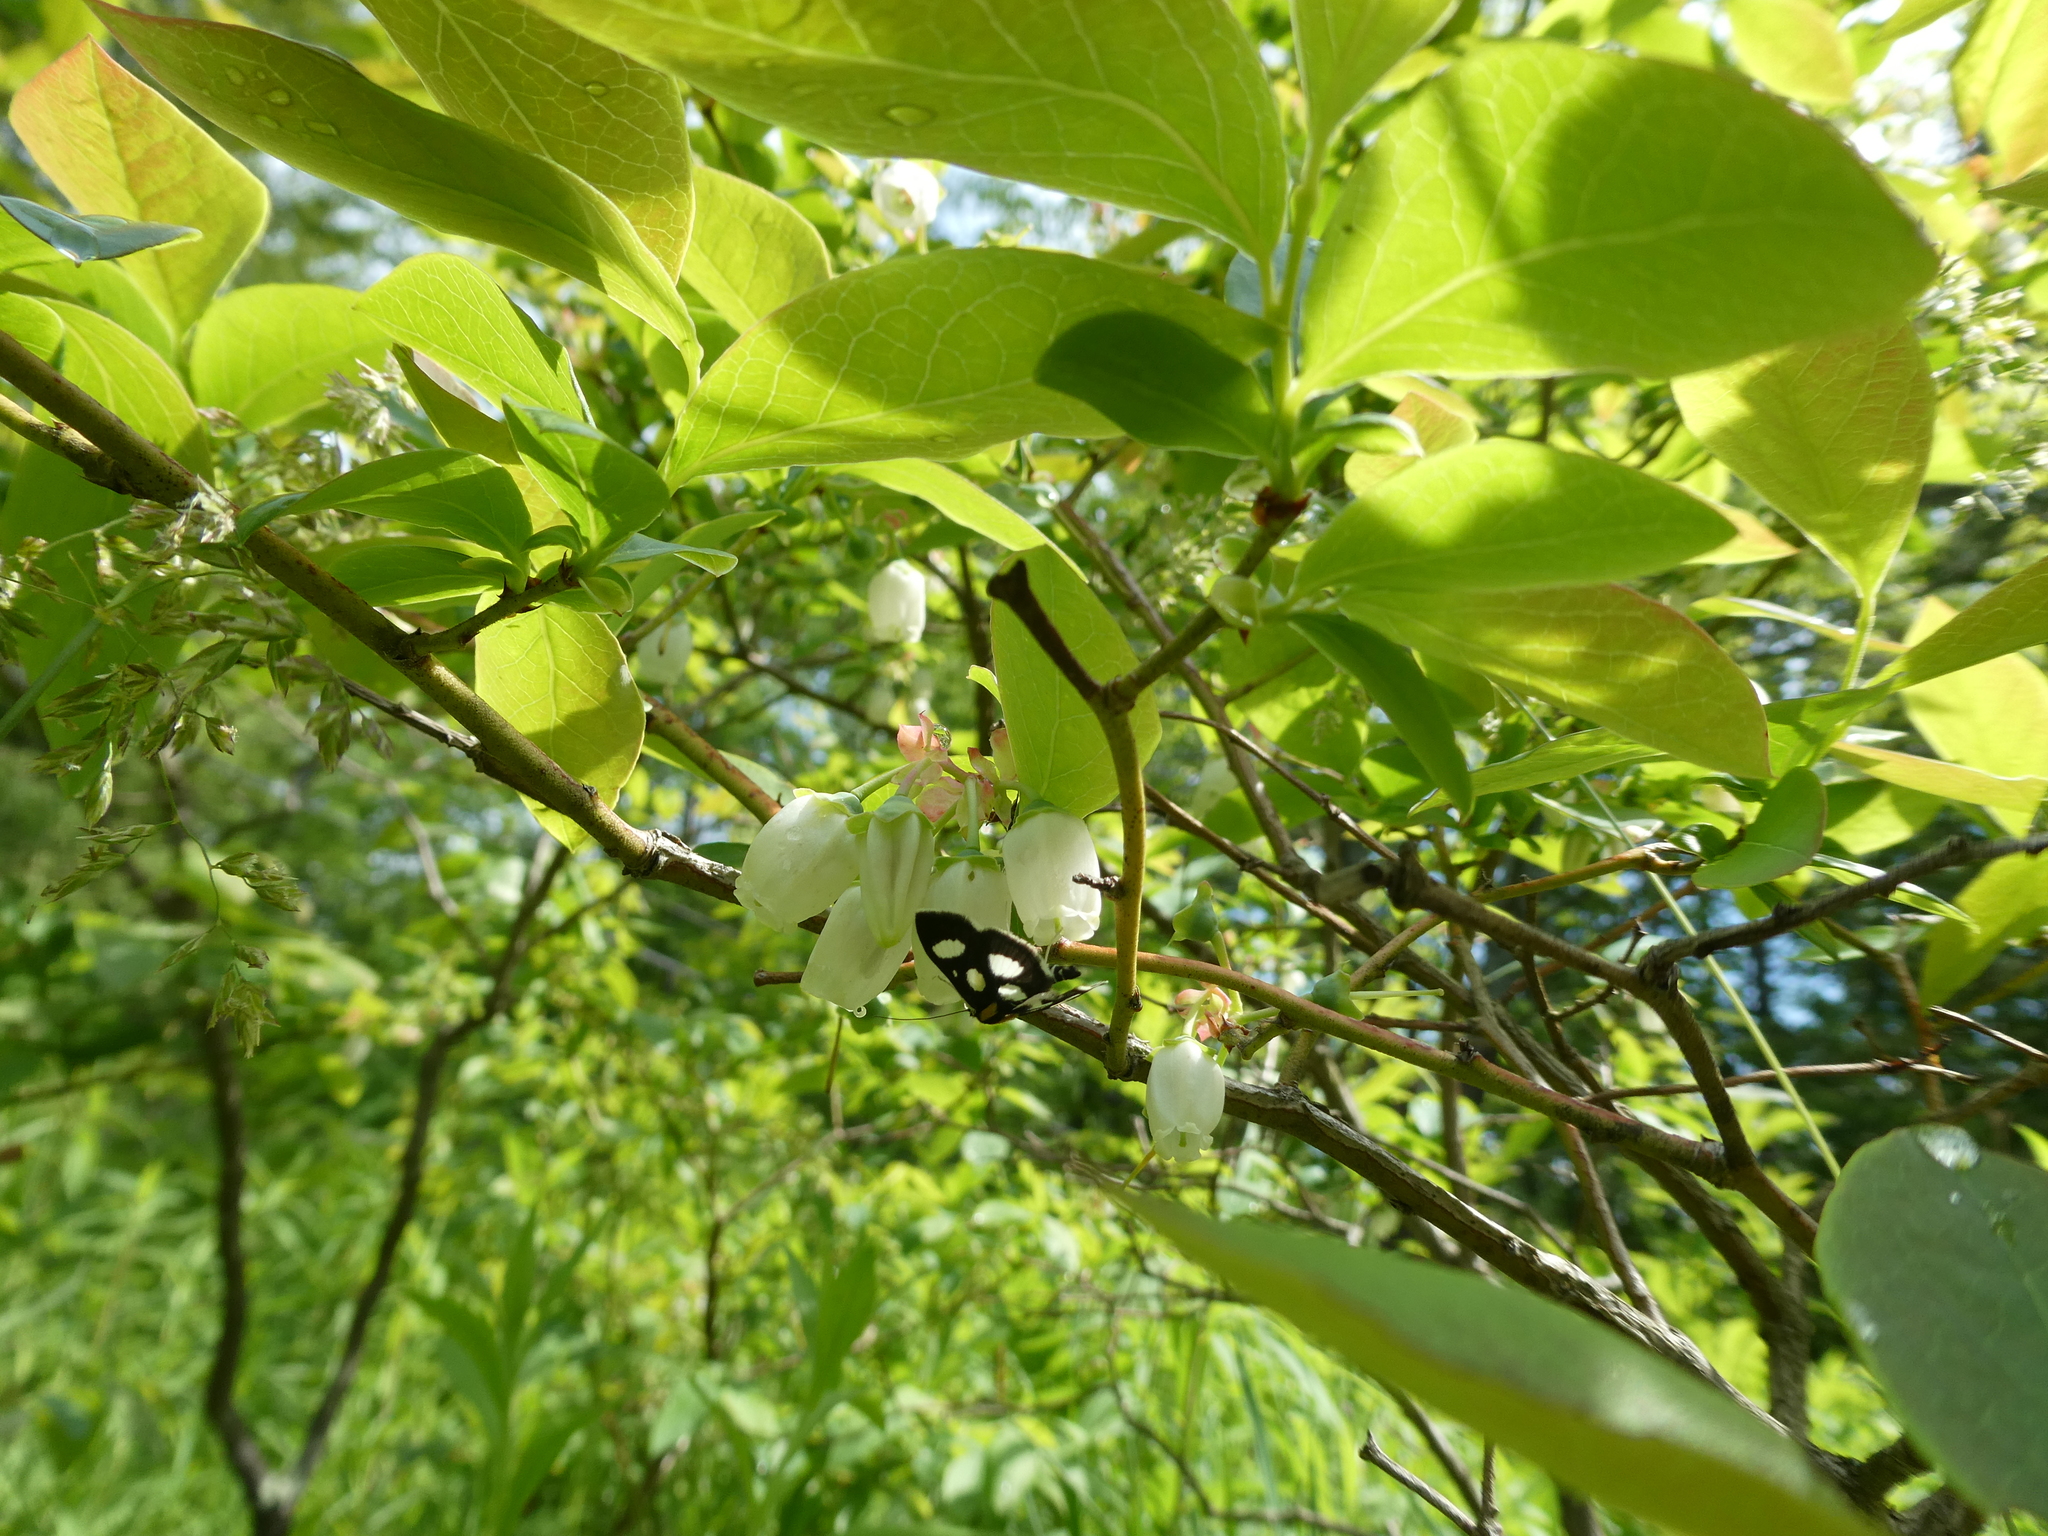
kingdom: Animalia
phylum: Arthropoda
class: Insecta
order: Lepidoptera
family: Crambidae
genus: Anania
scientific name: Anania funebris
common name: White-spotted sable moth
